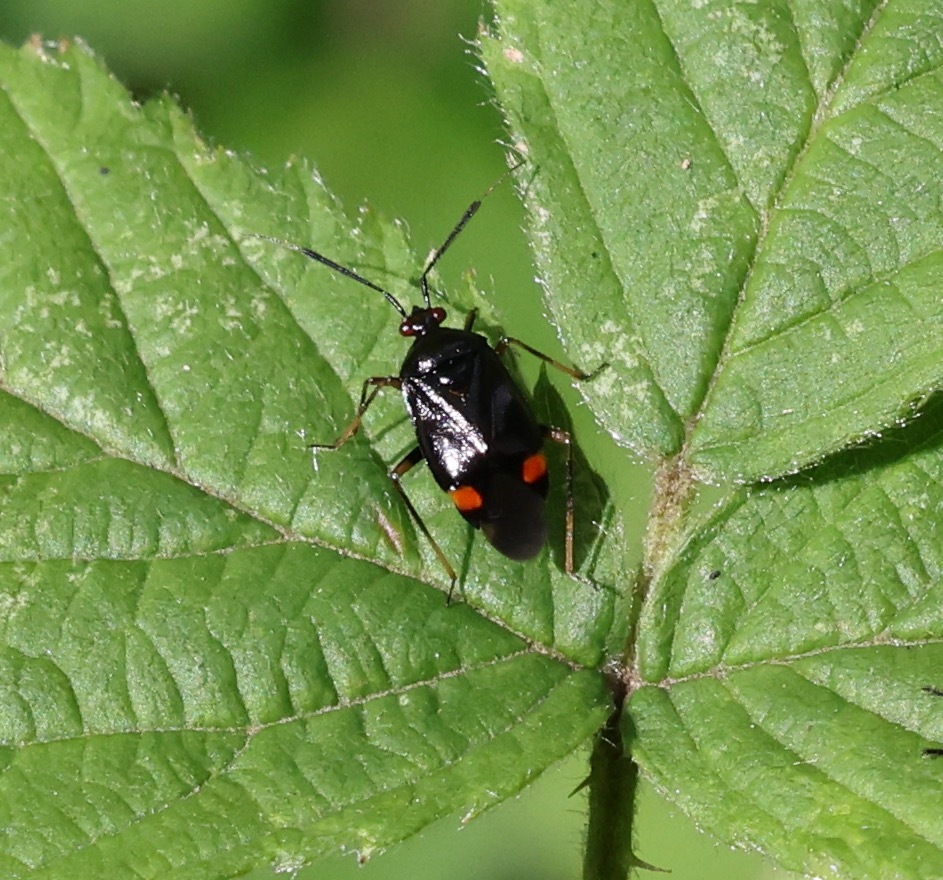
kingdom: Animalia
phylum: Arthropoda
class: Insecta
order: Hemiptera
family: Miridae
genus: Deraeocoris
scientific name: Deraeocoris ruber
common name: Plant bug
